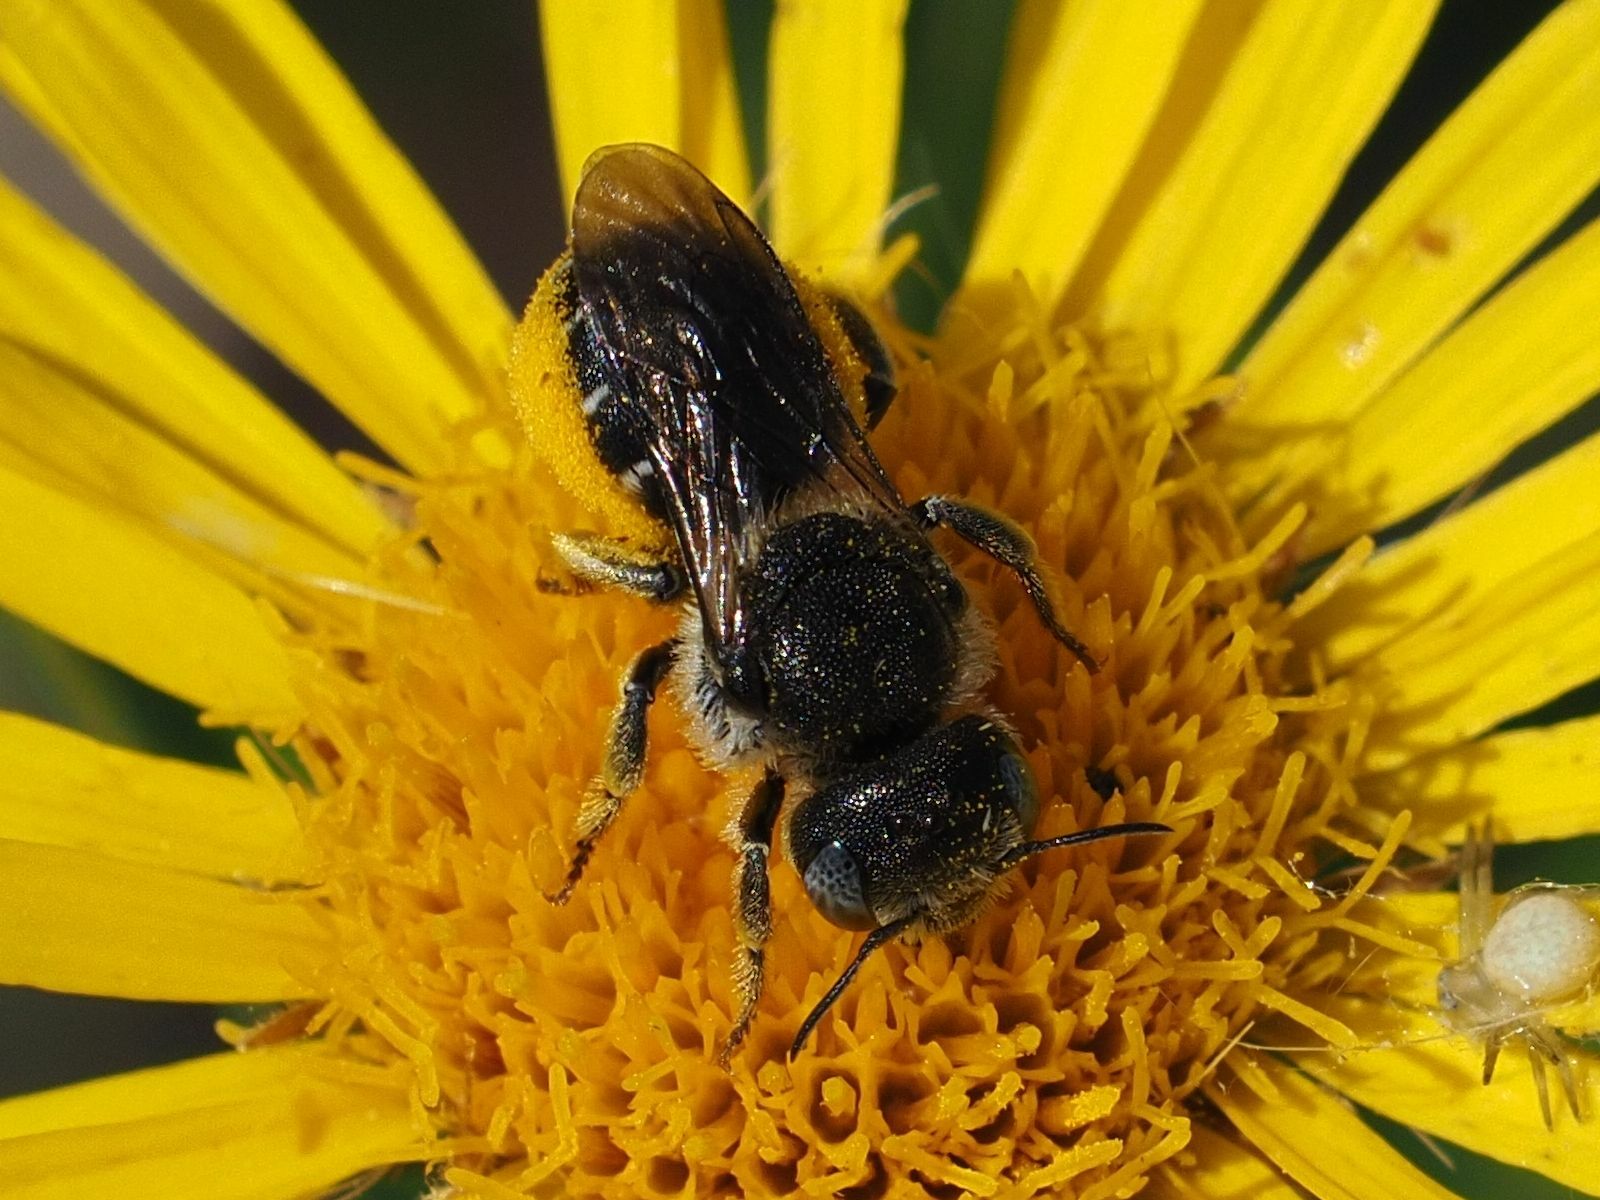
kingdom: Animalia
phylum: Arthropoda
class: Insecta
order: Hymenoptera
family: Megachilidae
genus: Osmia
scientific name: Osmia spinulosa
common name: Spined mason bee
